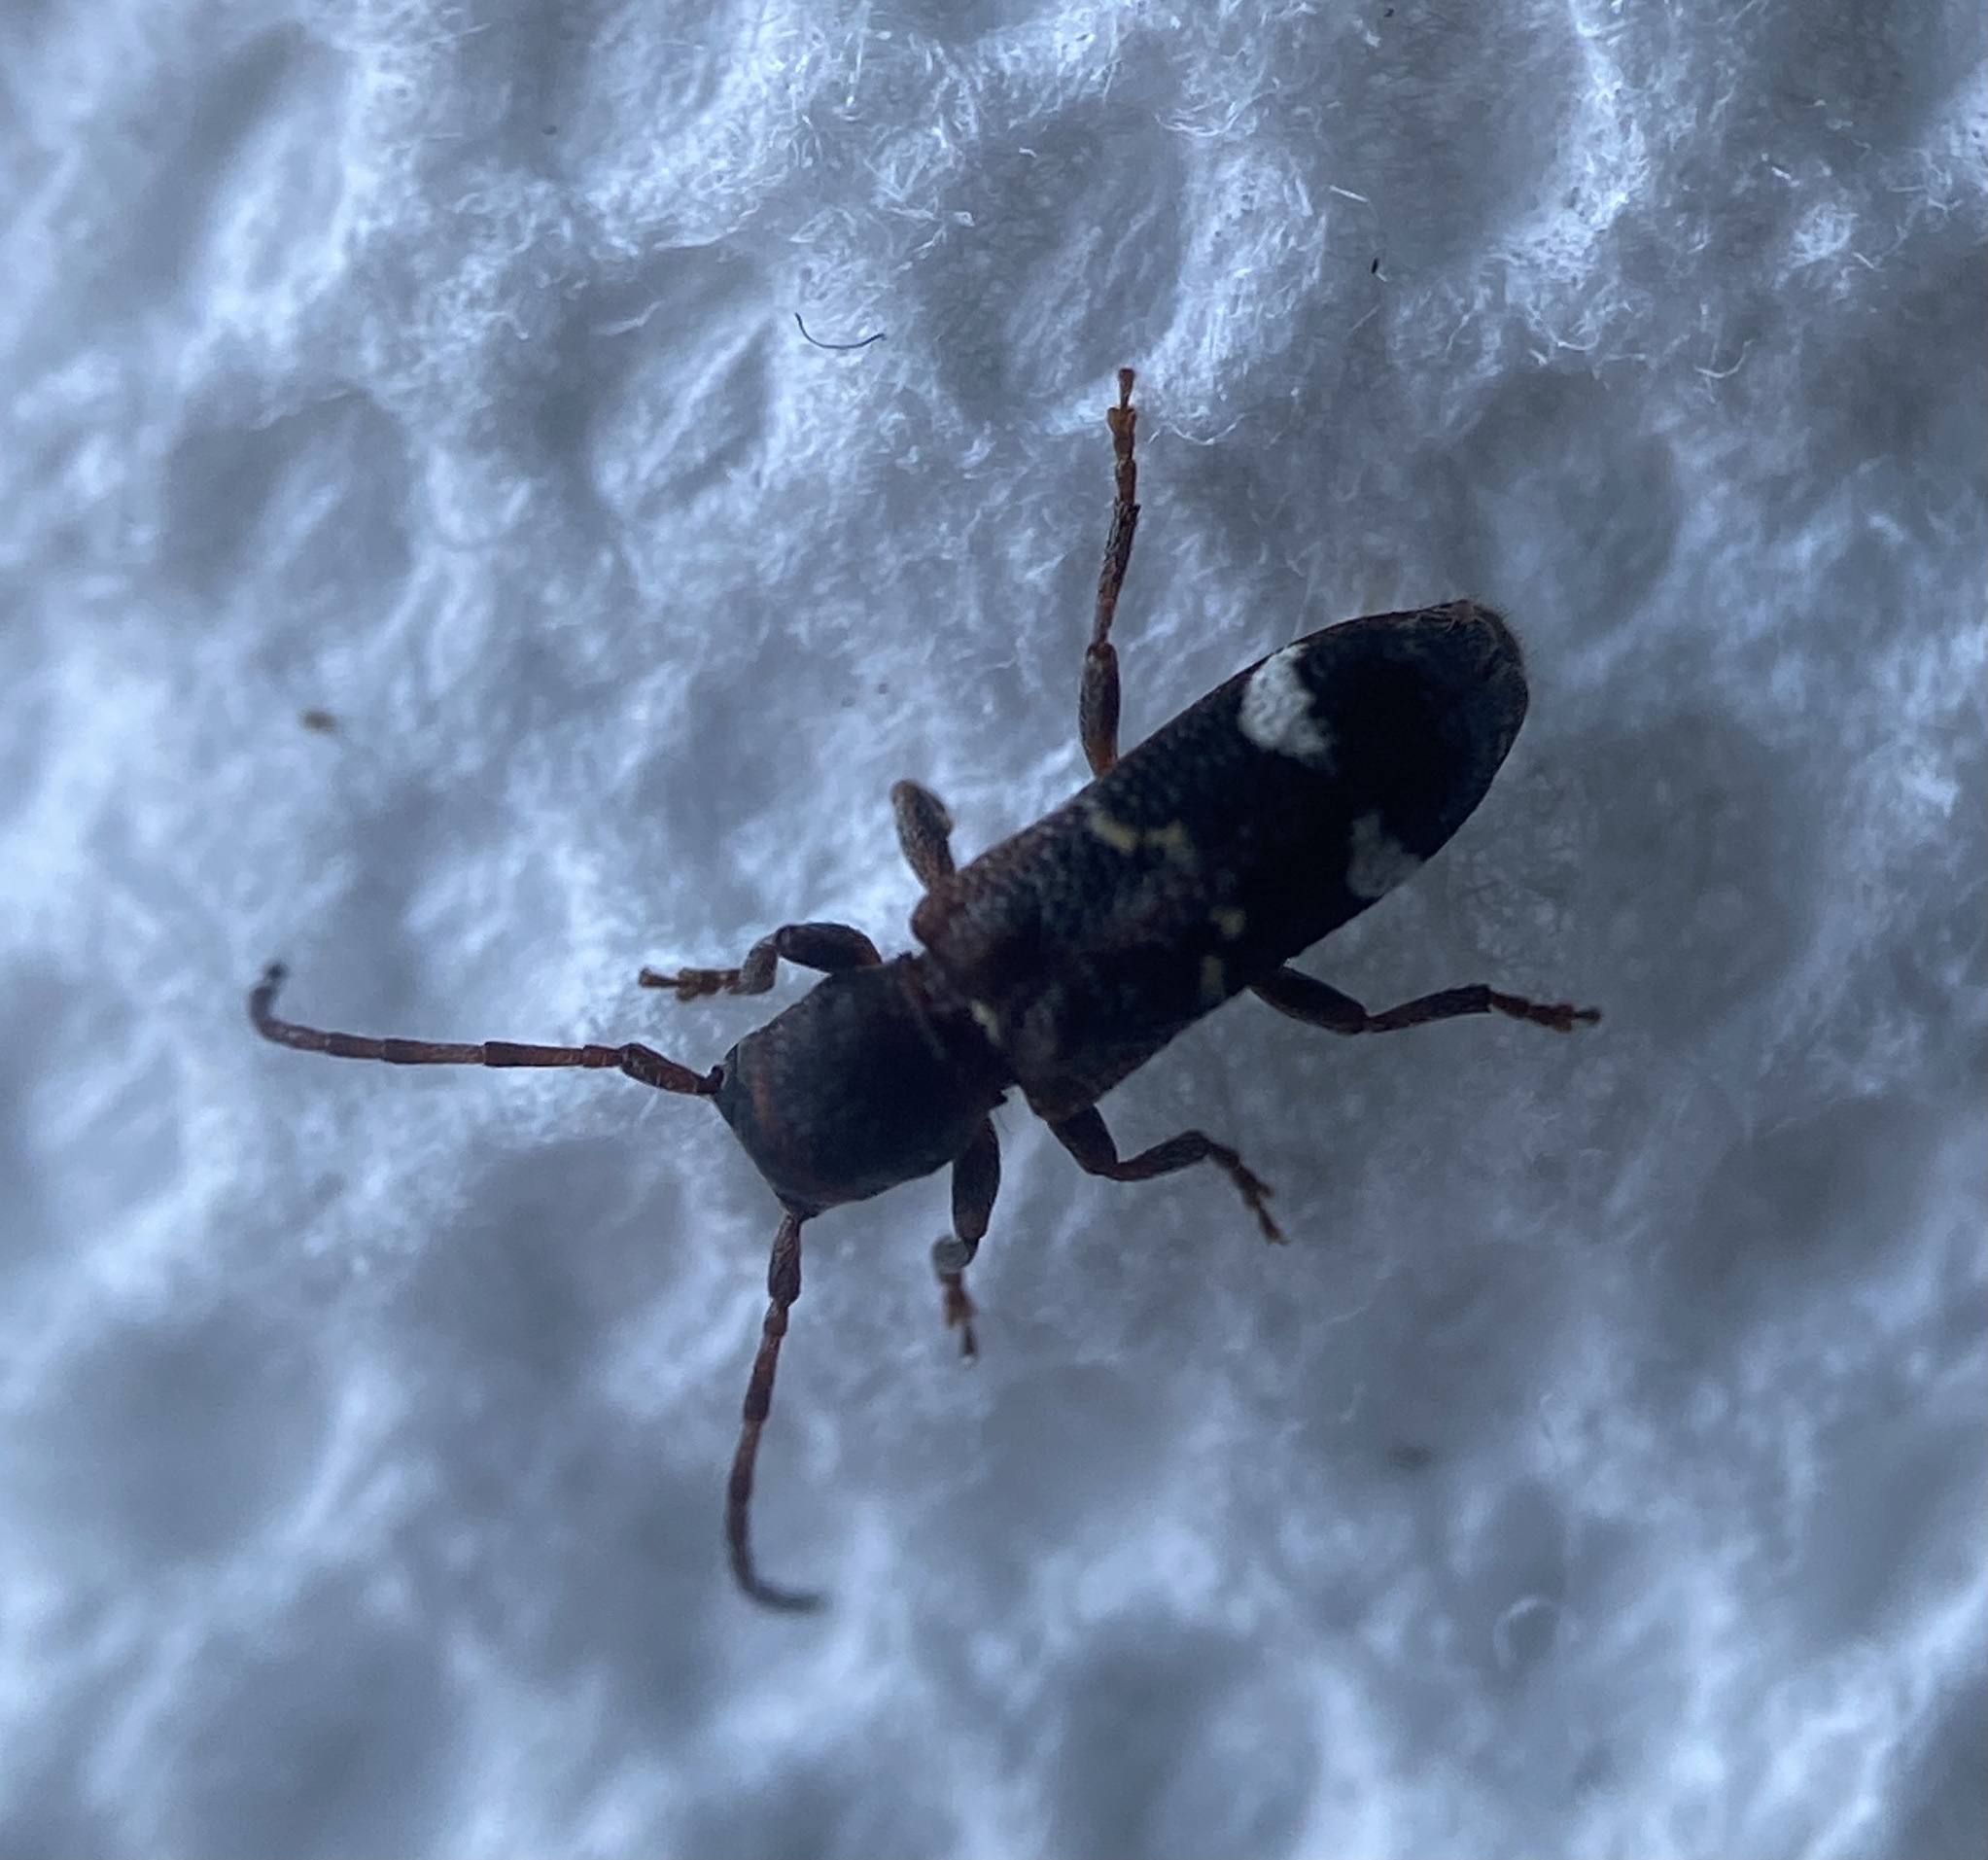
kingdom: Animalia
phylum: Arthropoda
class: Insecta
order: Coleoptera
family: Cerambycidae
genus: Psenocerus
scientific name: Psenocerus supernotatus
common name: Currant-tip borer
